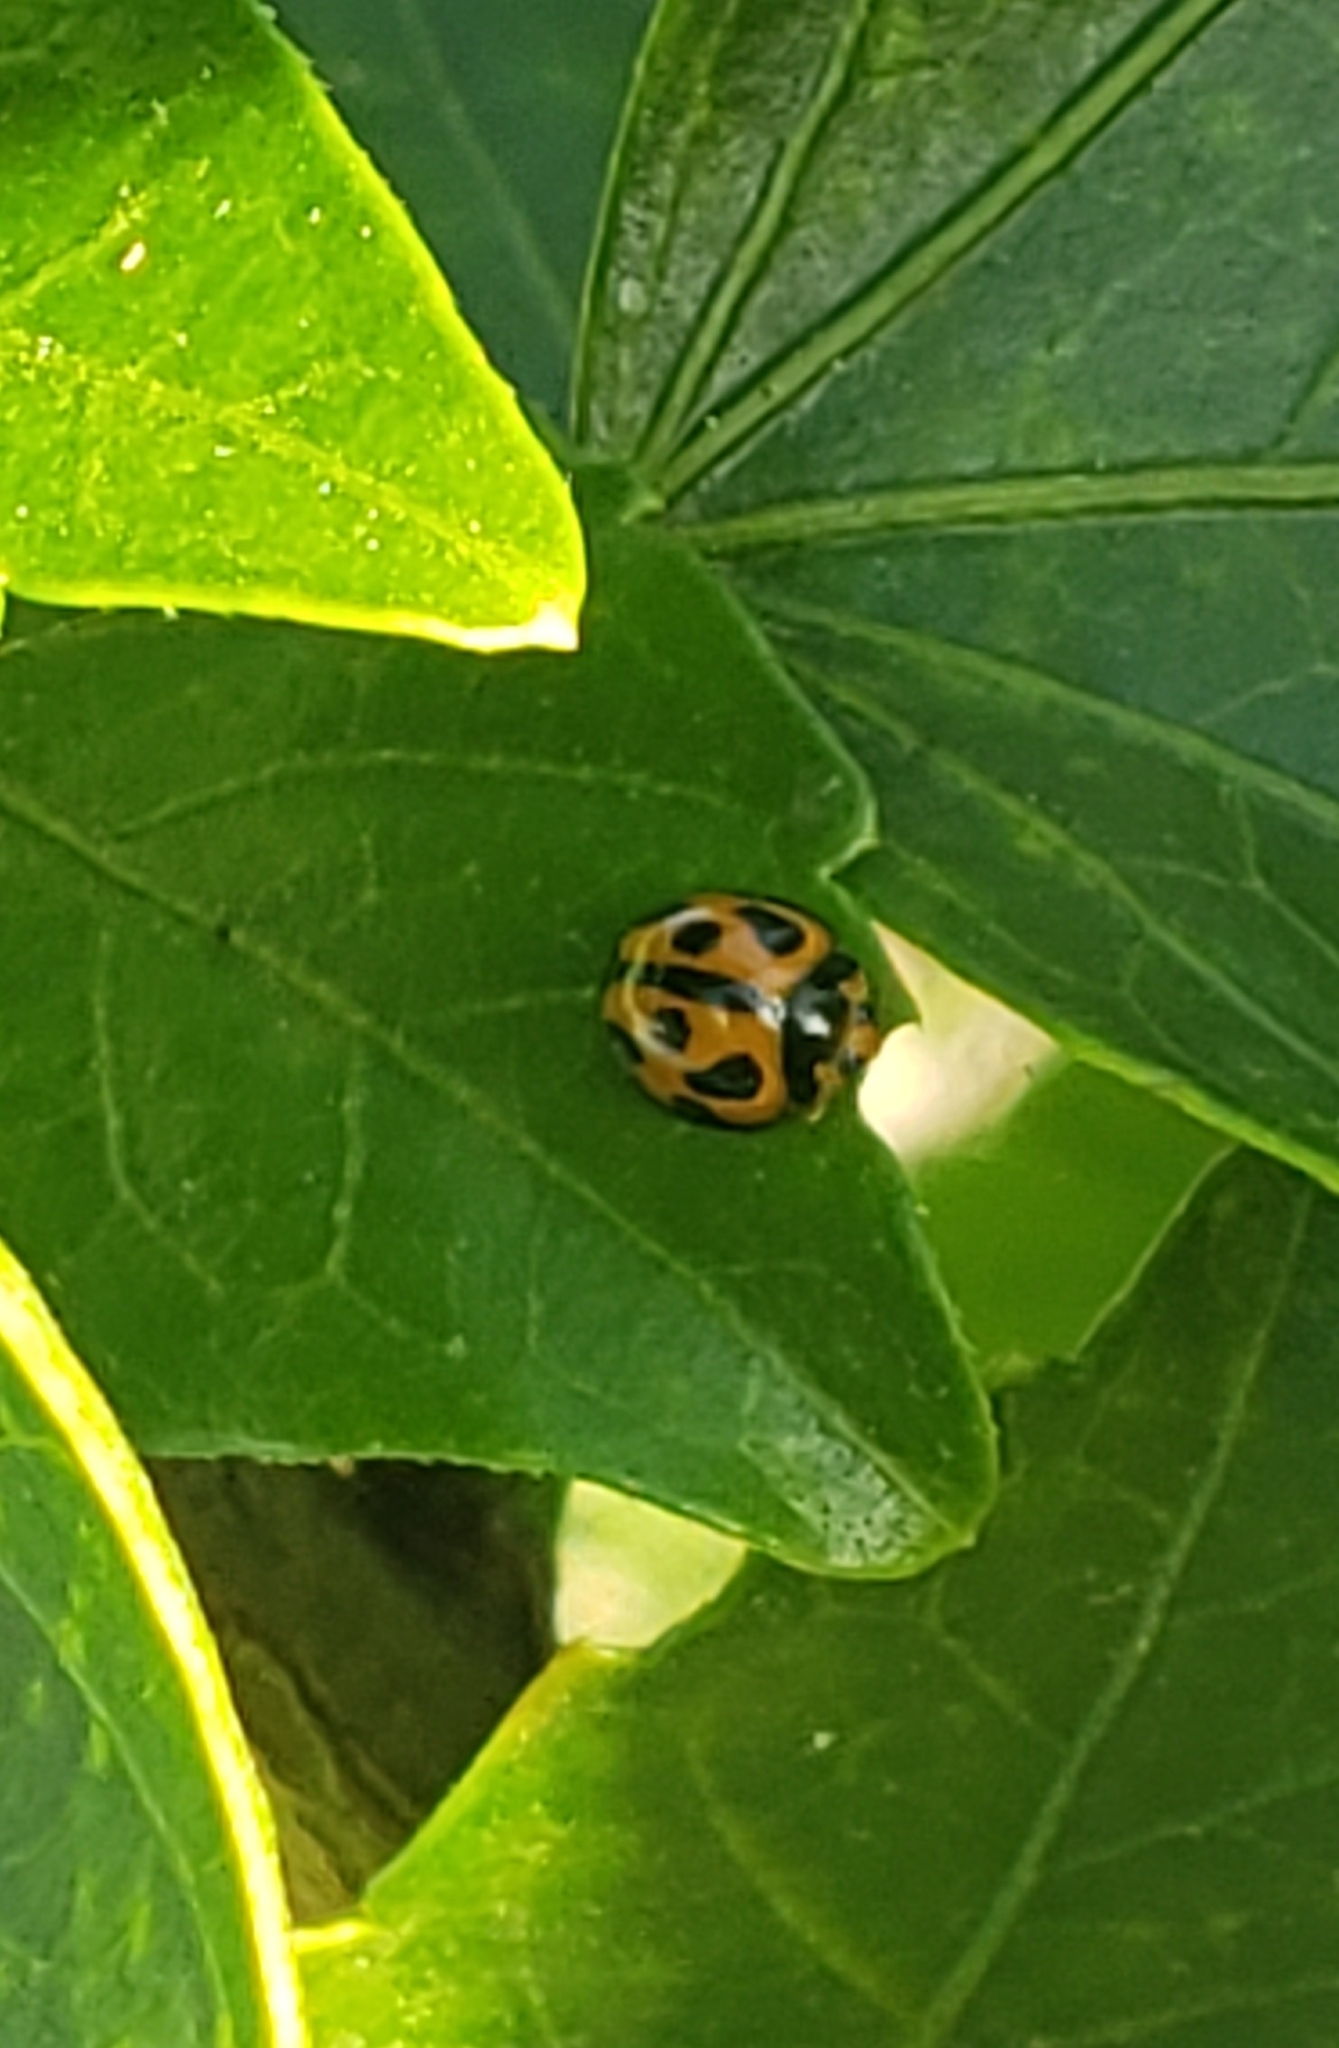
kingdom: Animalia
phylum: Arthropoda
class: Insecta
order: Coleoptera
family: Coccinellidae
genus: Coelophora
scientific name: Coelophora inaequalis
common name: Common australian lady beetle
